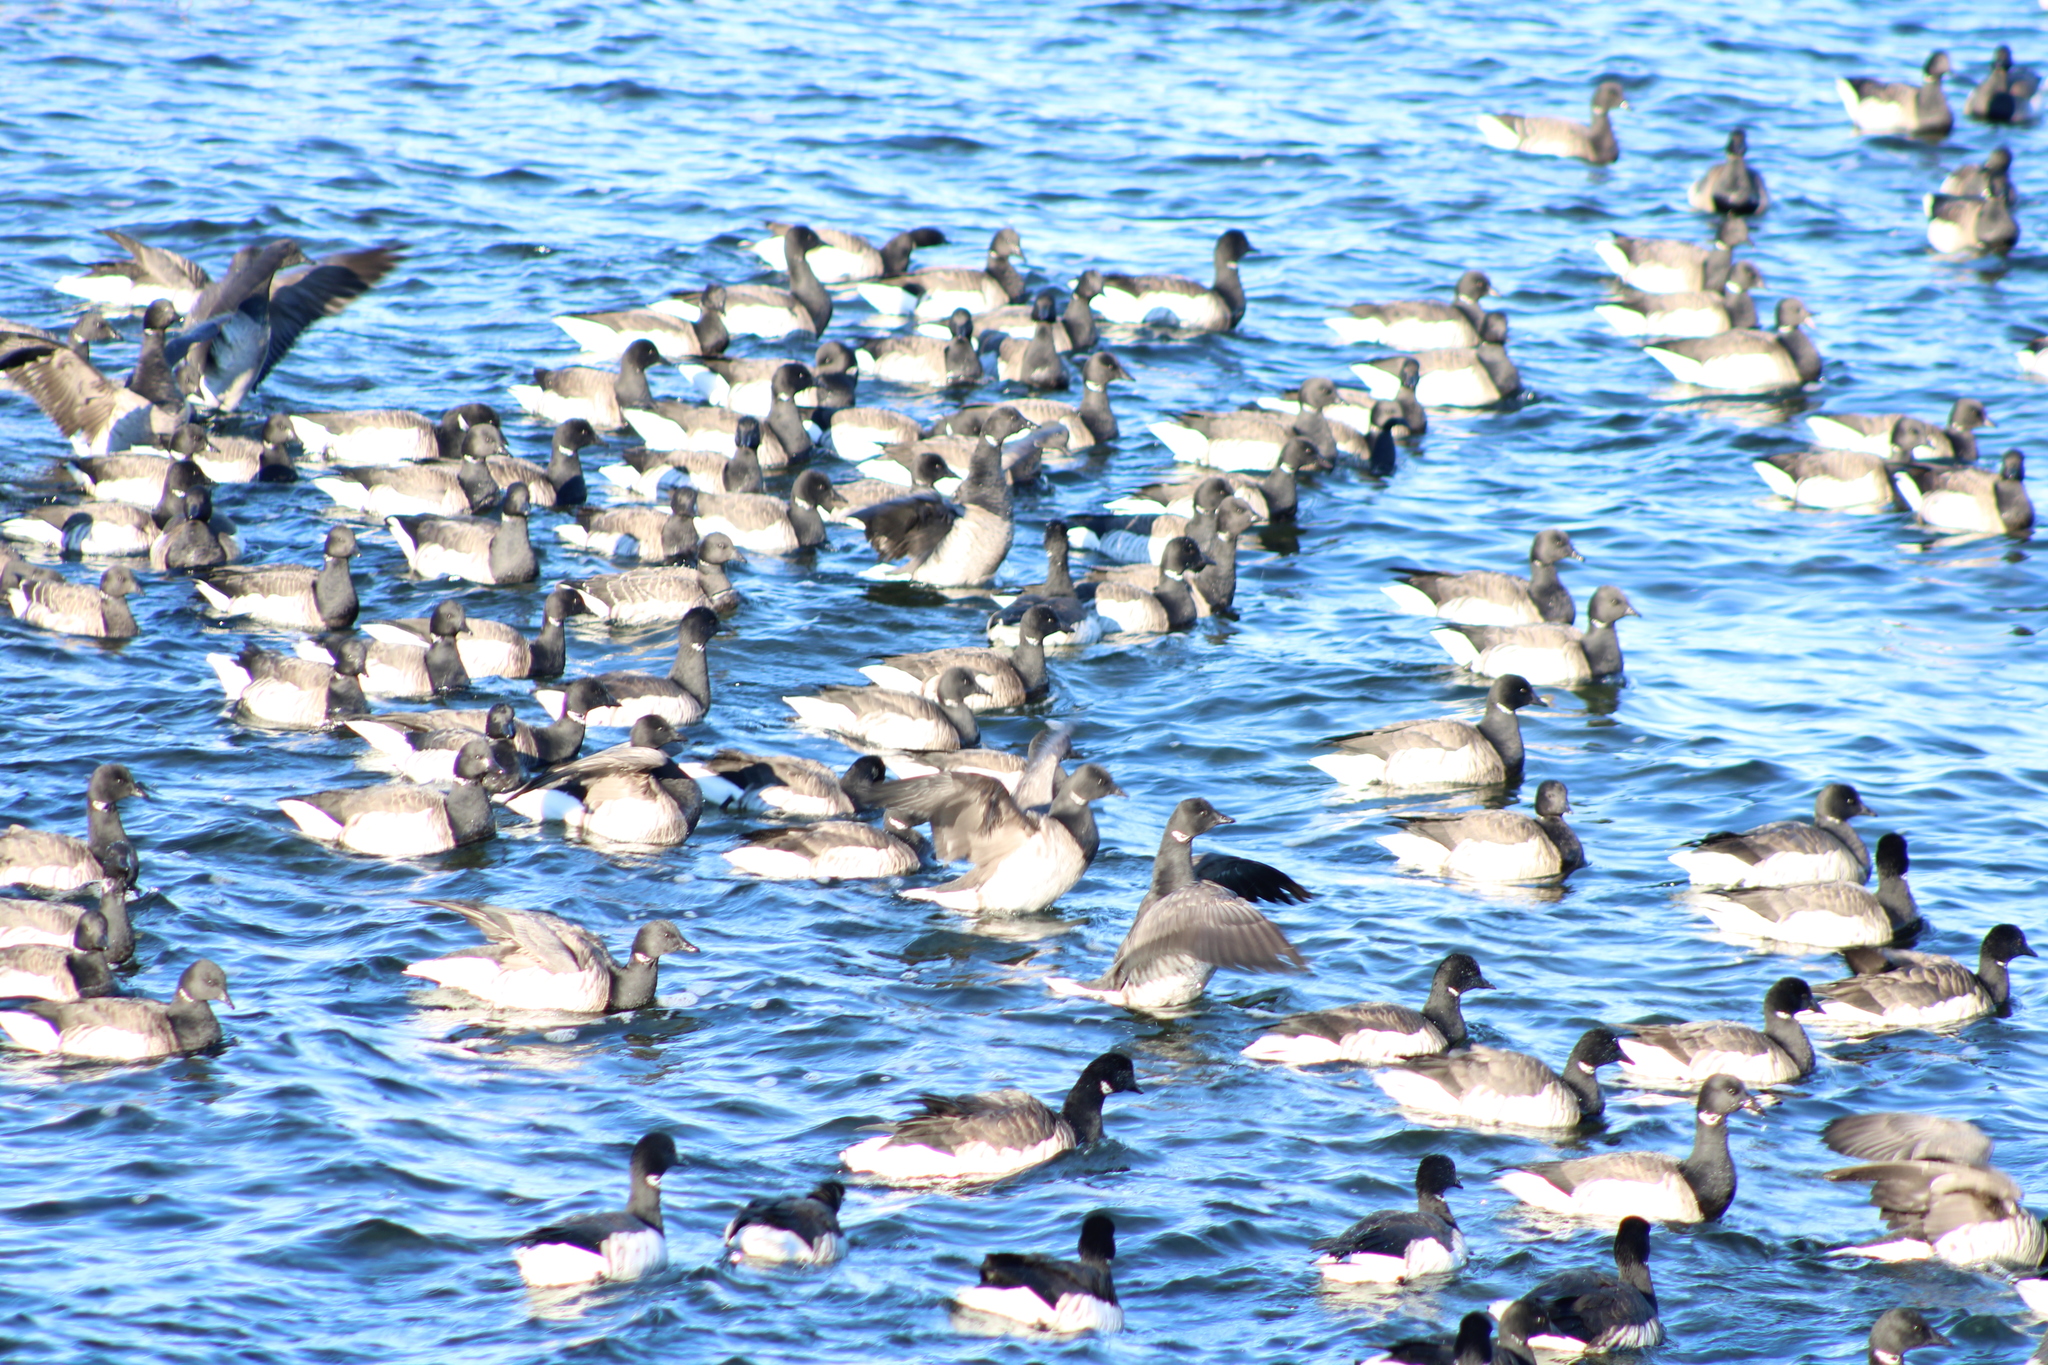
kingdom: Animalia
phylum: Chordata
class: Aves
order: Anseriformes
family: Anatidae
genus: Branta
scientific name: Branta bernicla
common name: Brant goose
